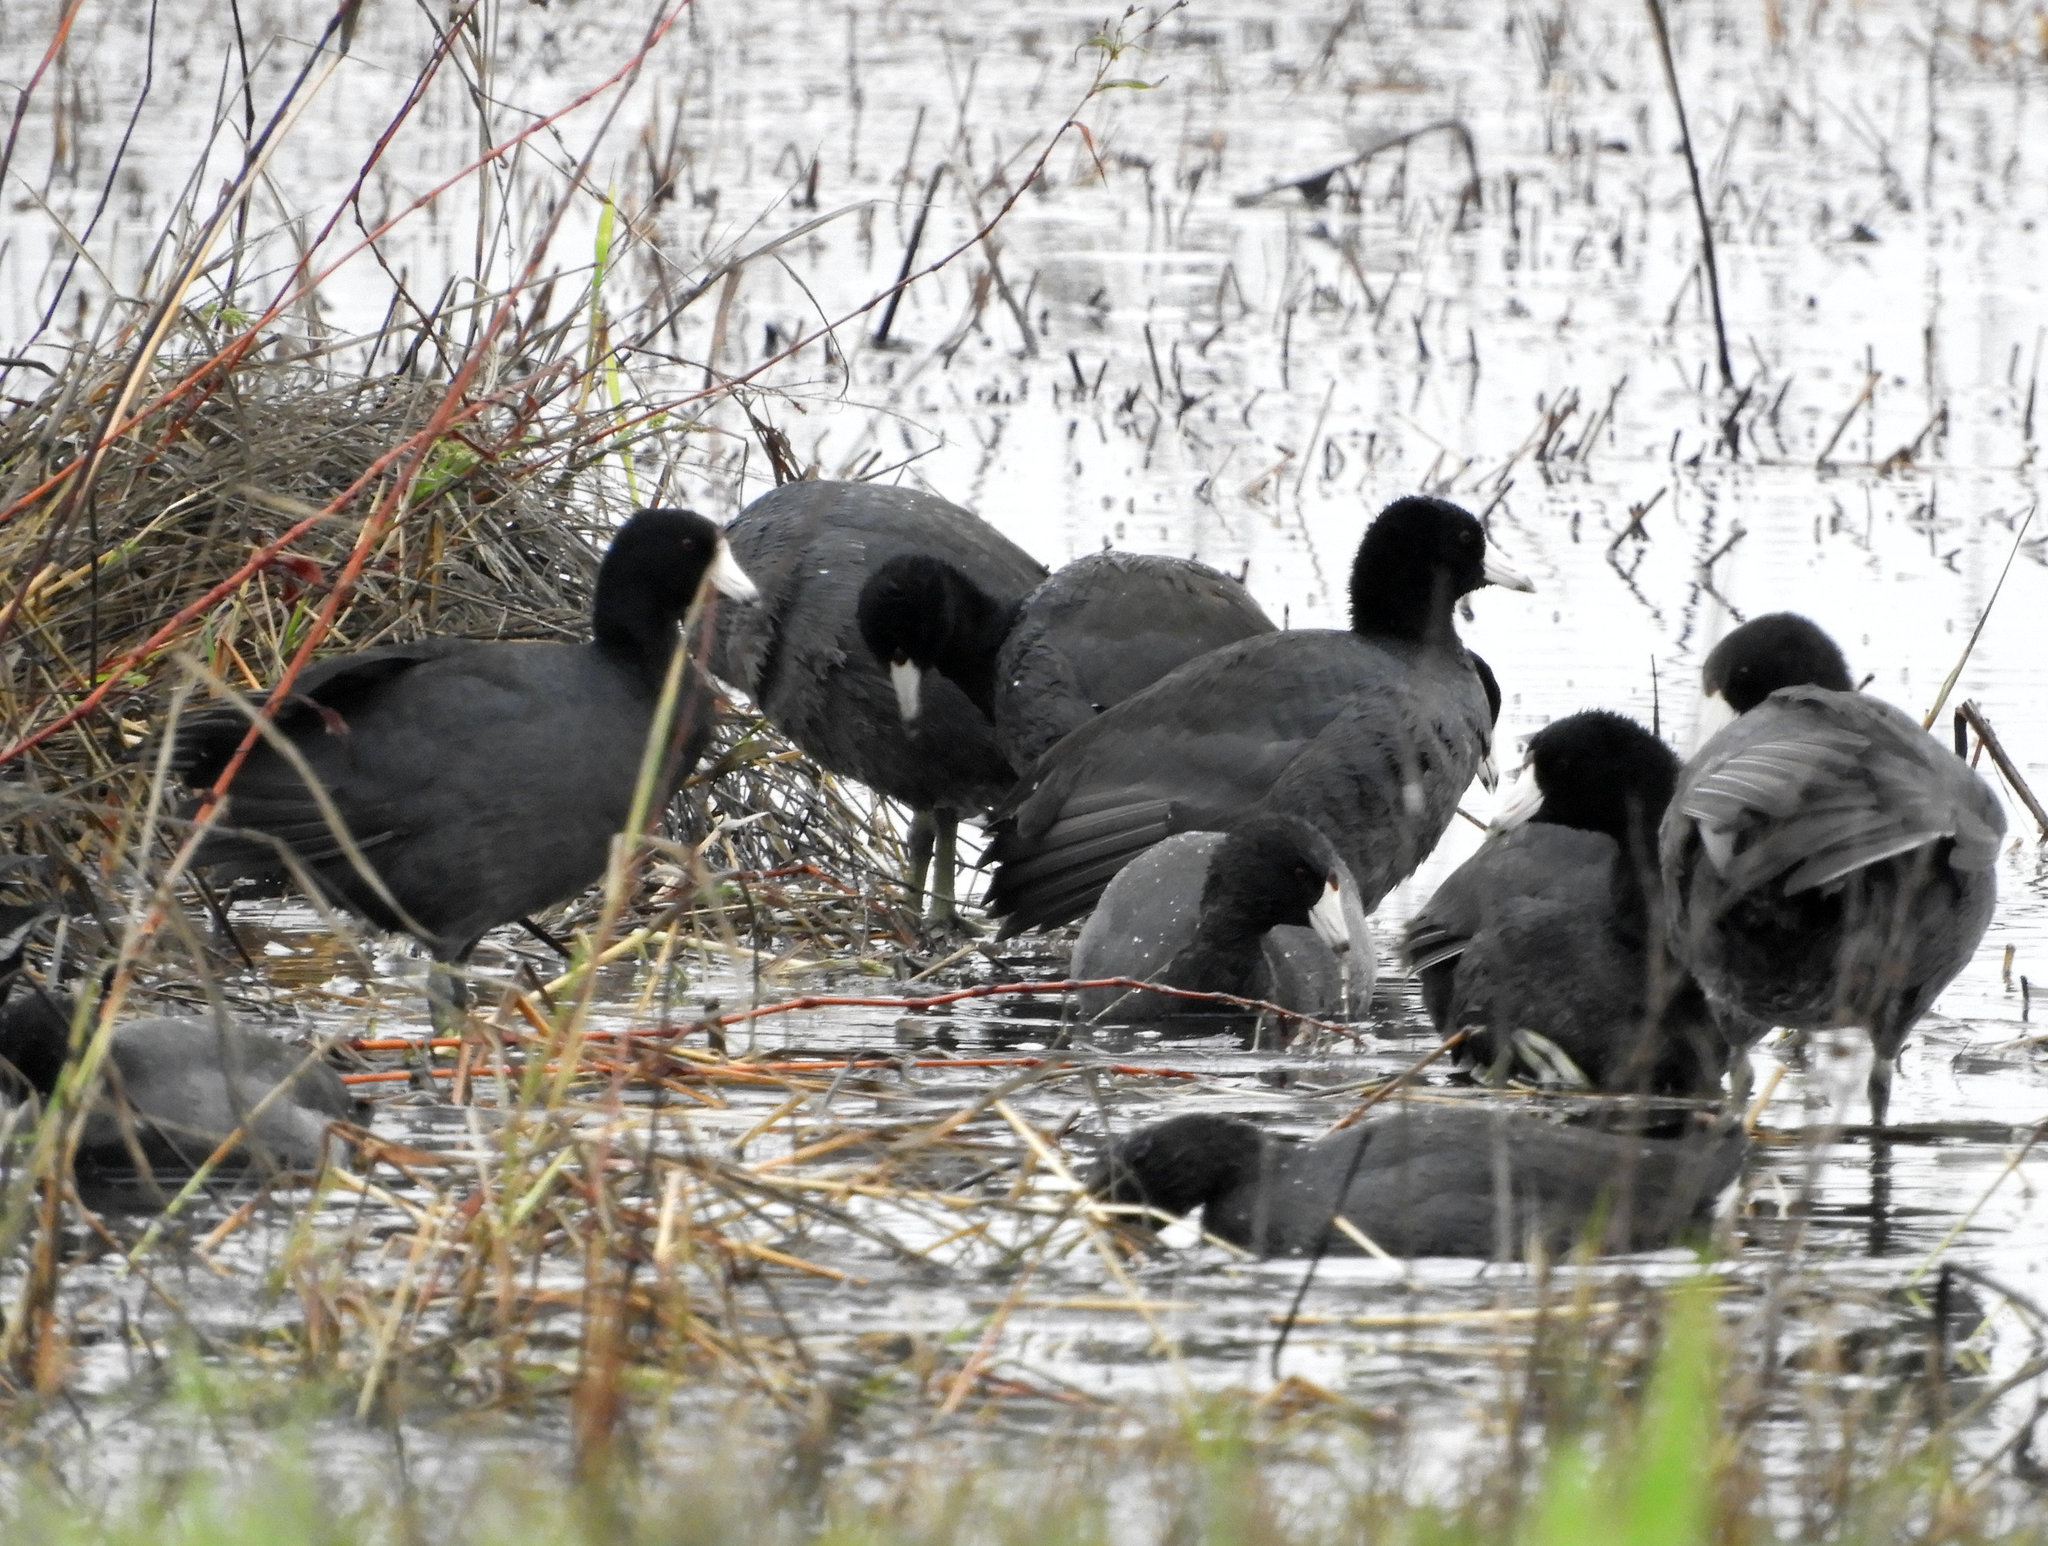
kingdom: Animalia
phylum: Chordata
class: Aves
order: Gruiformes
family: Rallidae
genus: Fulica
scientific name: Fulica americana
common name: American coot
